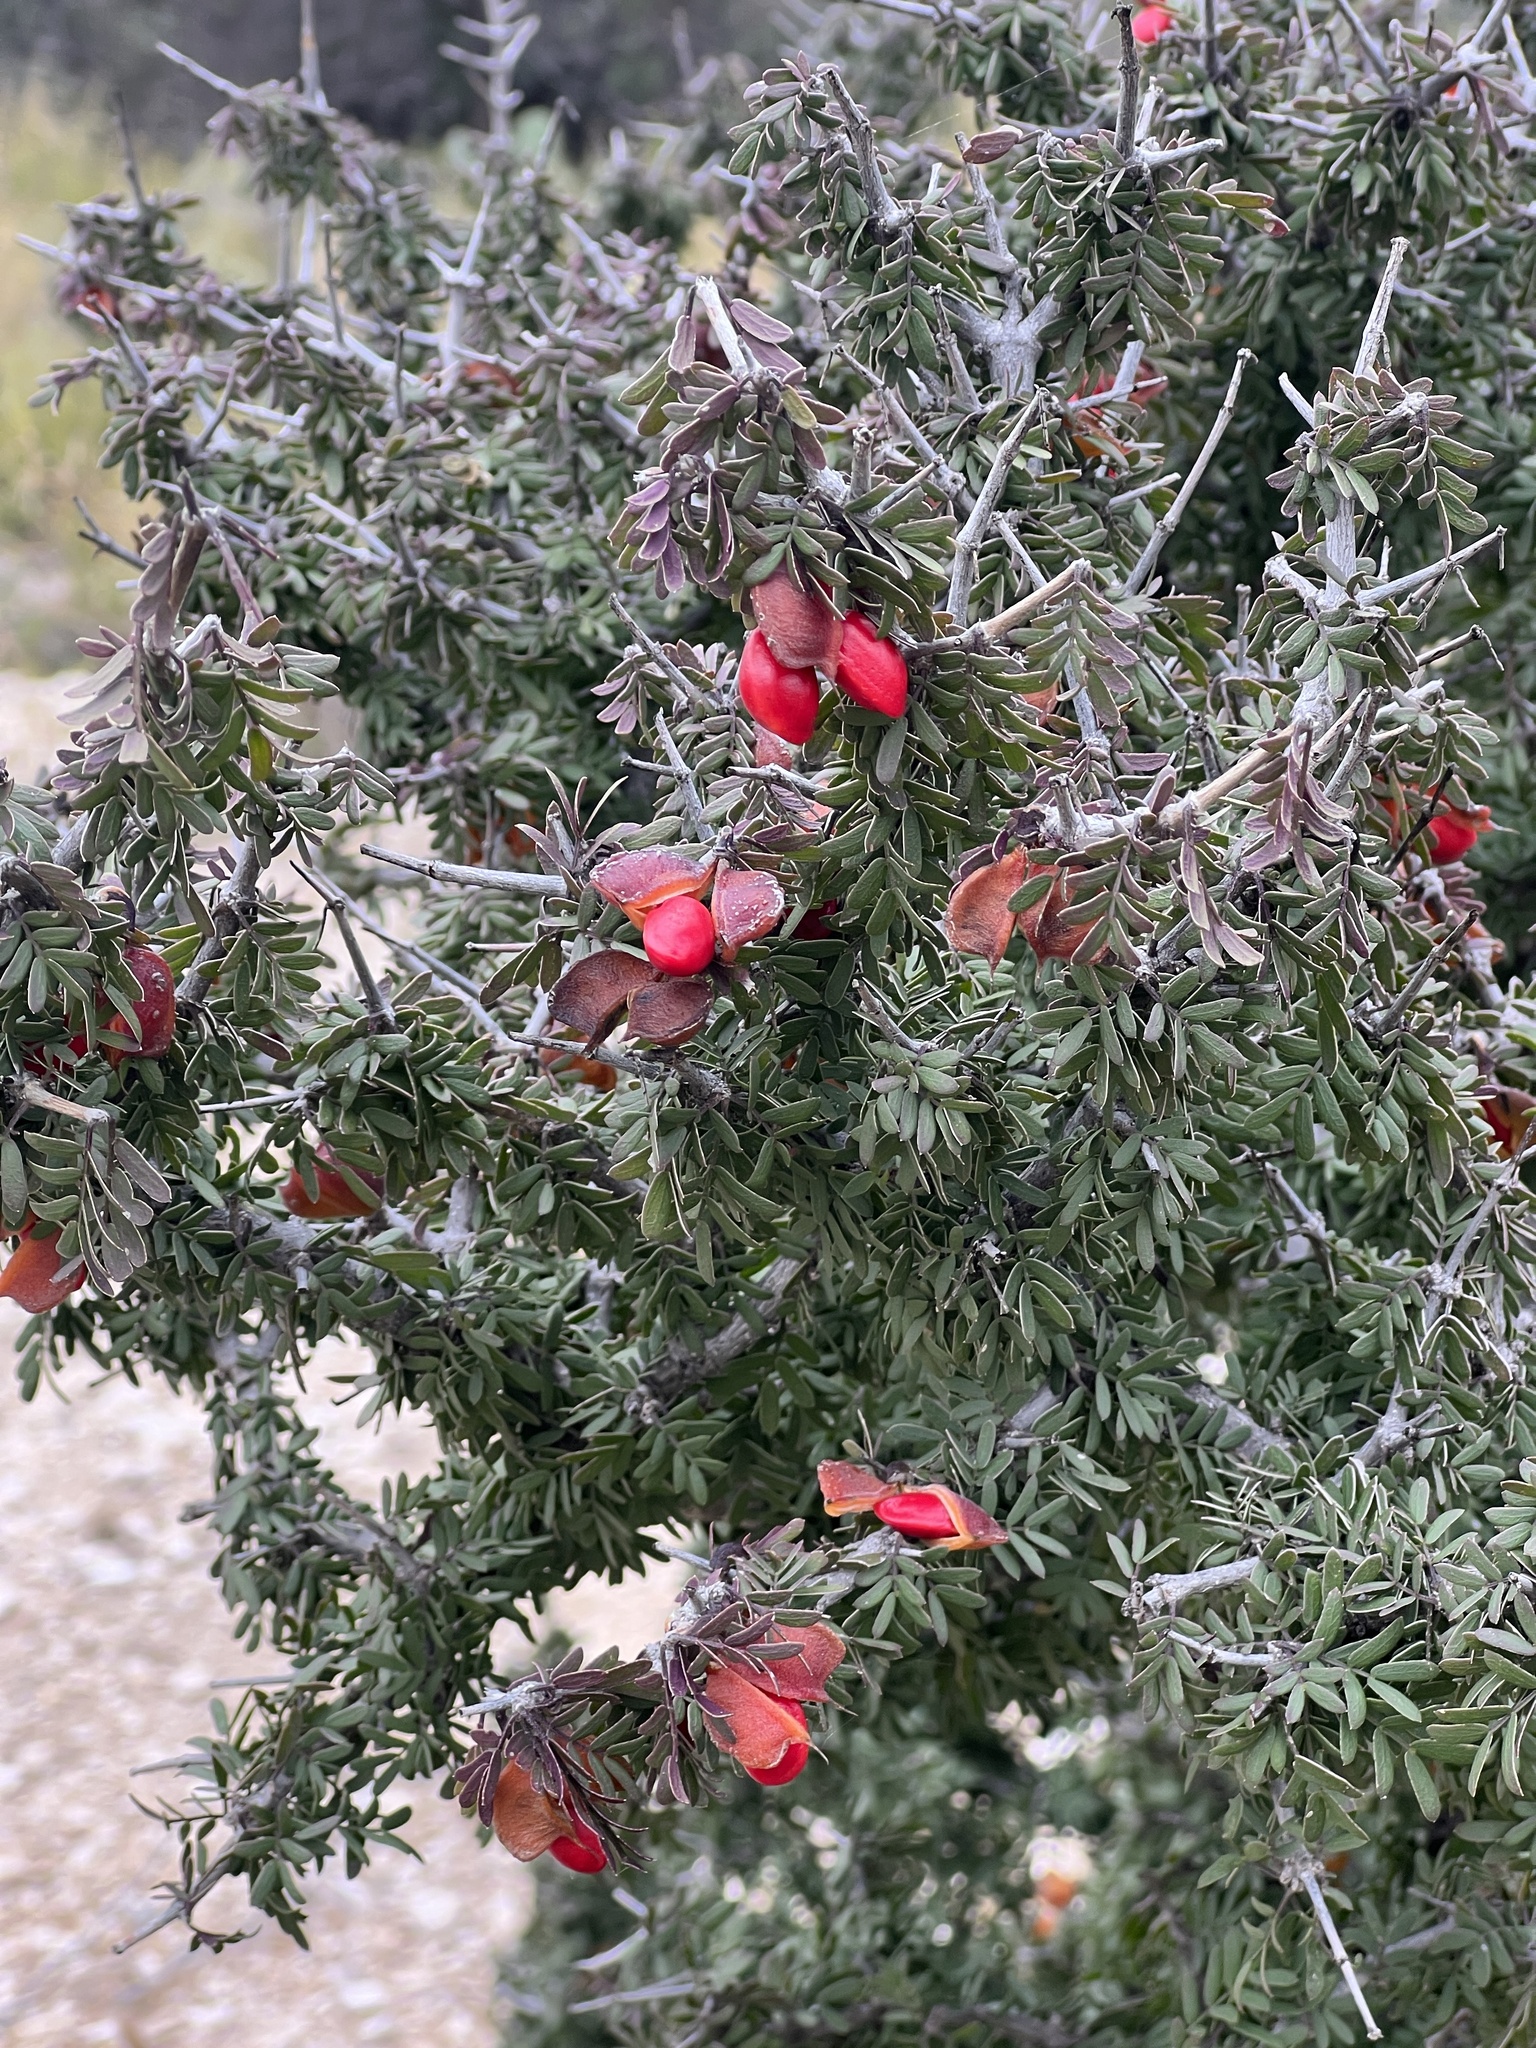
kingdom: Plantae
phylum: Tracheophyta
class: Magnoliopsida
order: Zygophyllales
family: Zygophyllaceae
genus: Porlieria
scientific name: Porlieria angustifolia
